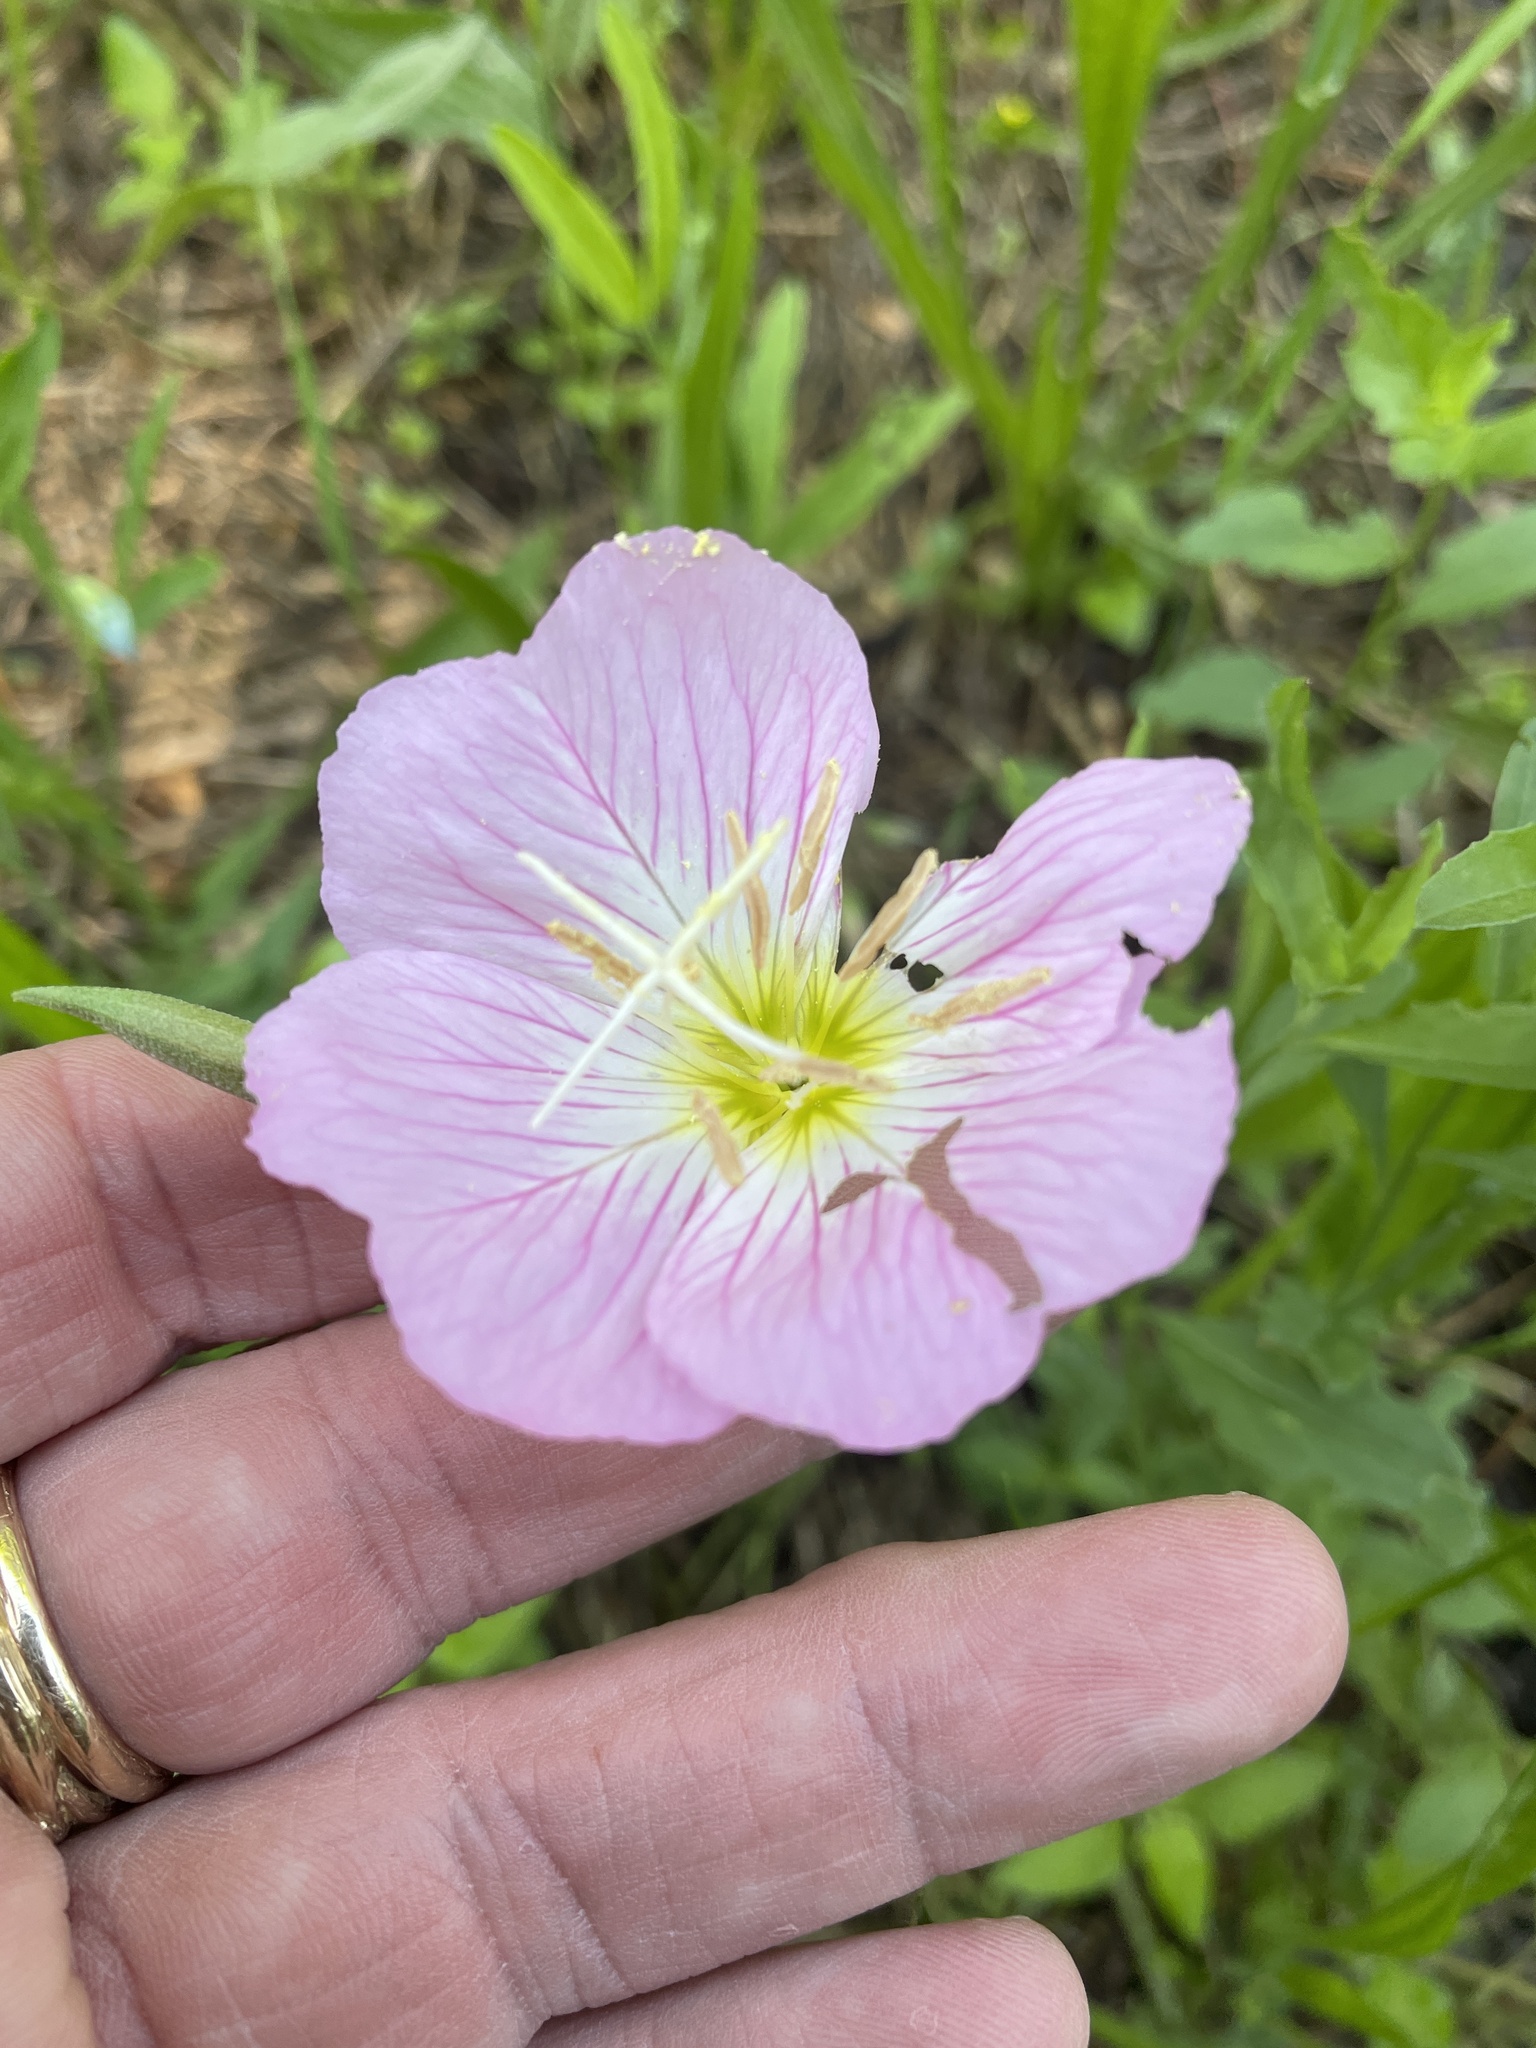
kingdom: Plantae
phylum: Tracheophyta
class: Magnoliopsida
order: Myrtales
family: Onagraceae
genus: Oenothera
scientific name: Oenothera speciosa
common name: White evening-primrose
